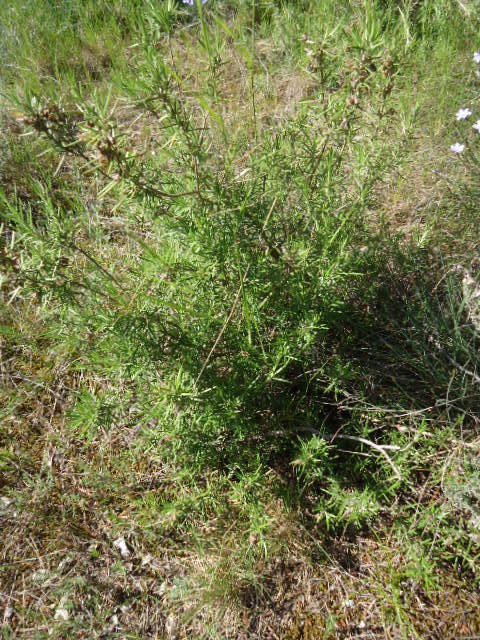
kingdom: Plantae
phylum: Tracheophyta
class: Magnoliopsida
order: Lamiales
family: Lamiaceae
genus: Salvia
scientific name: Salvia rosmarinus
